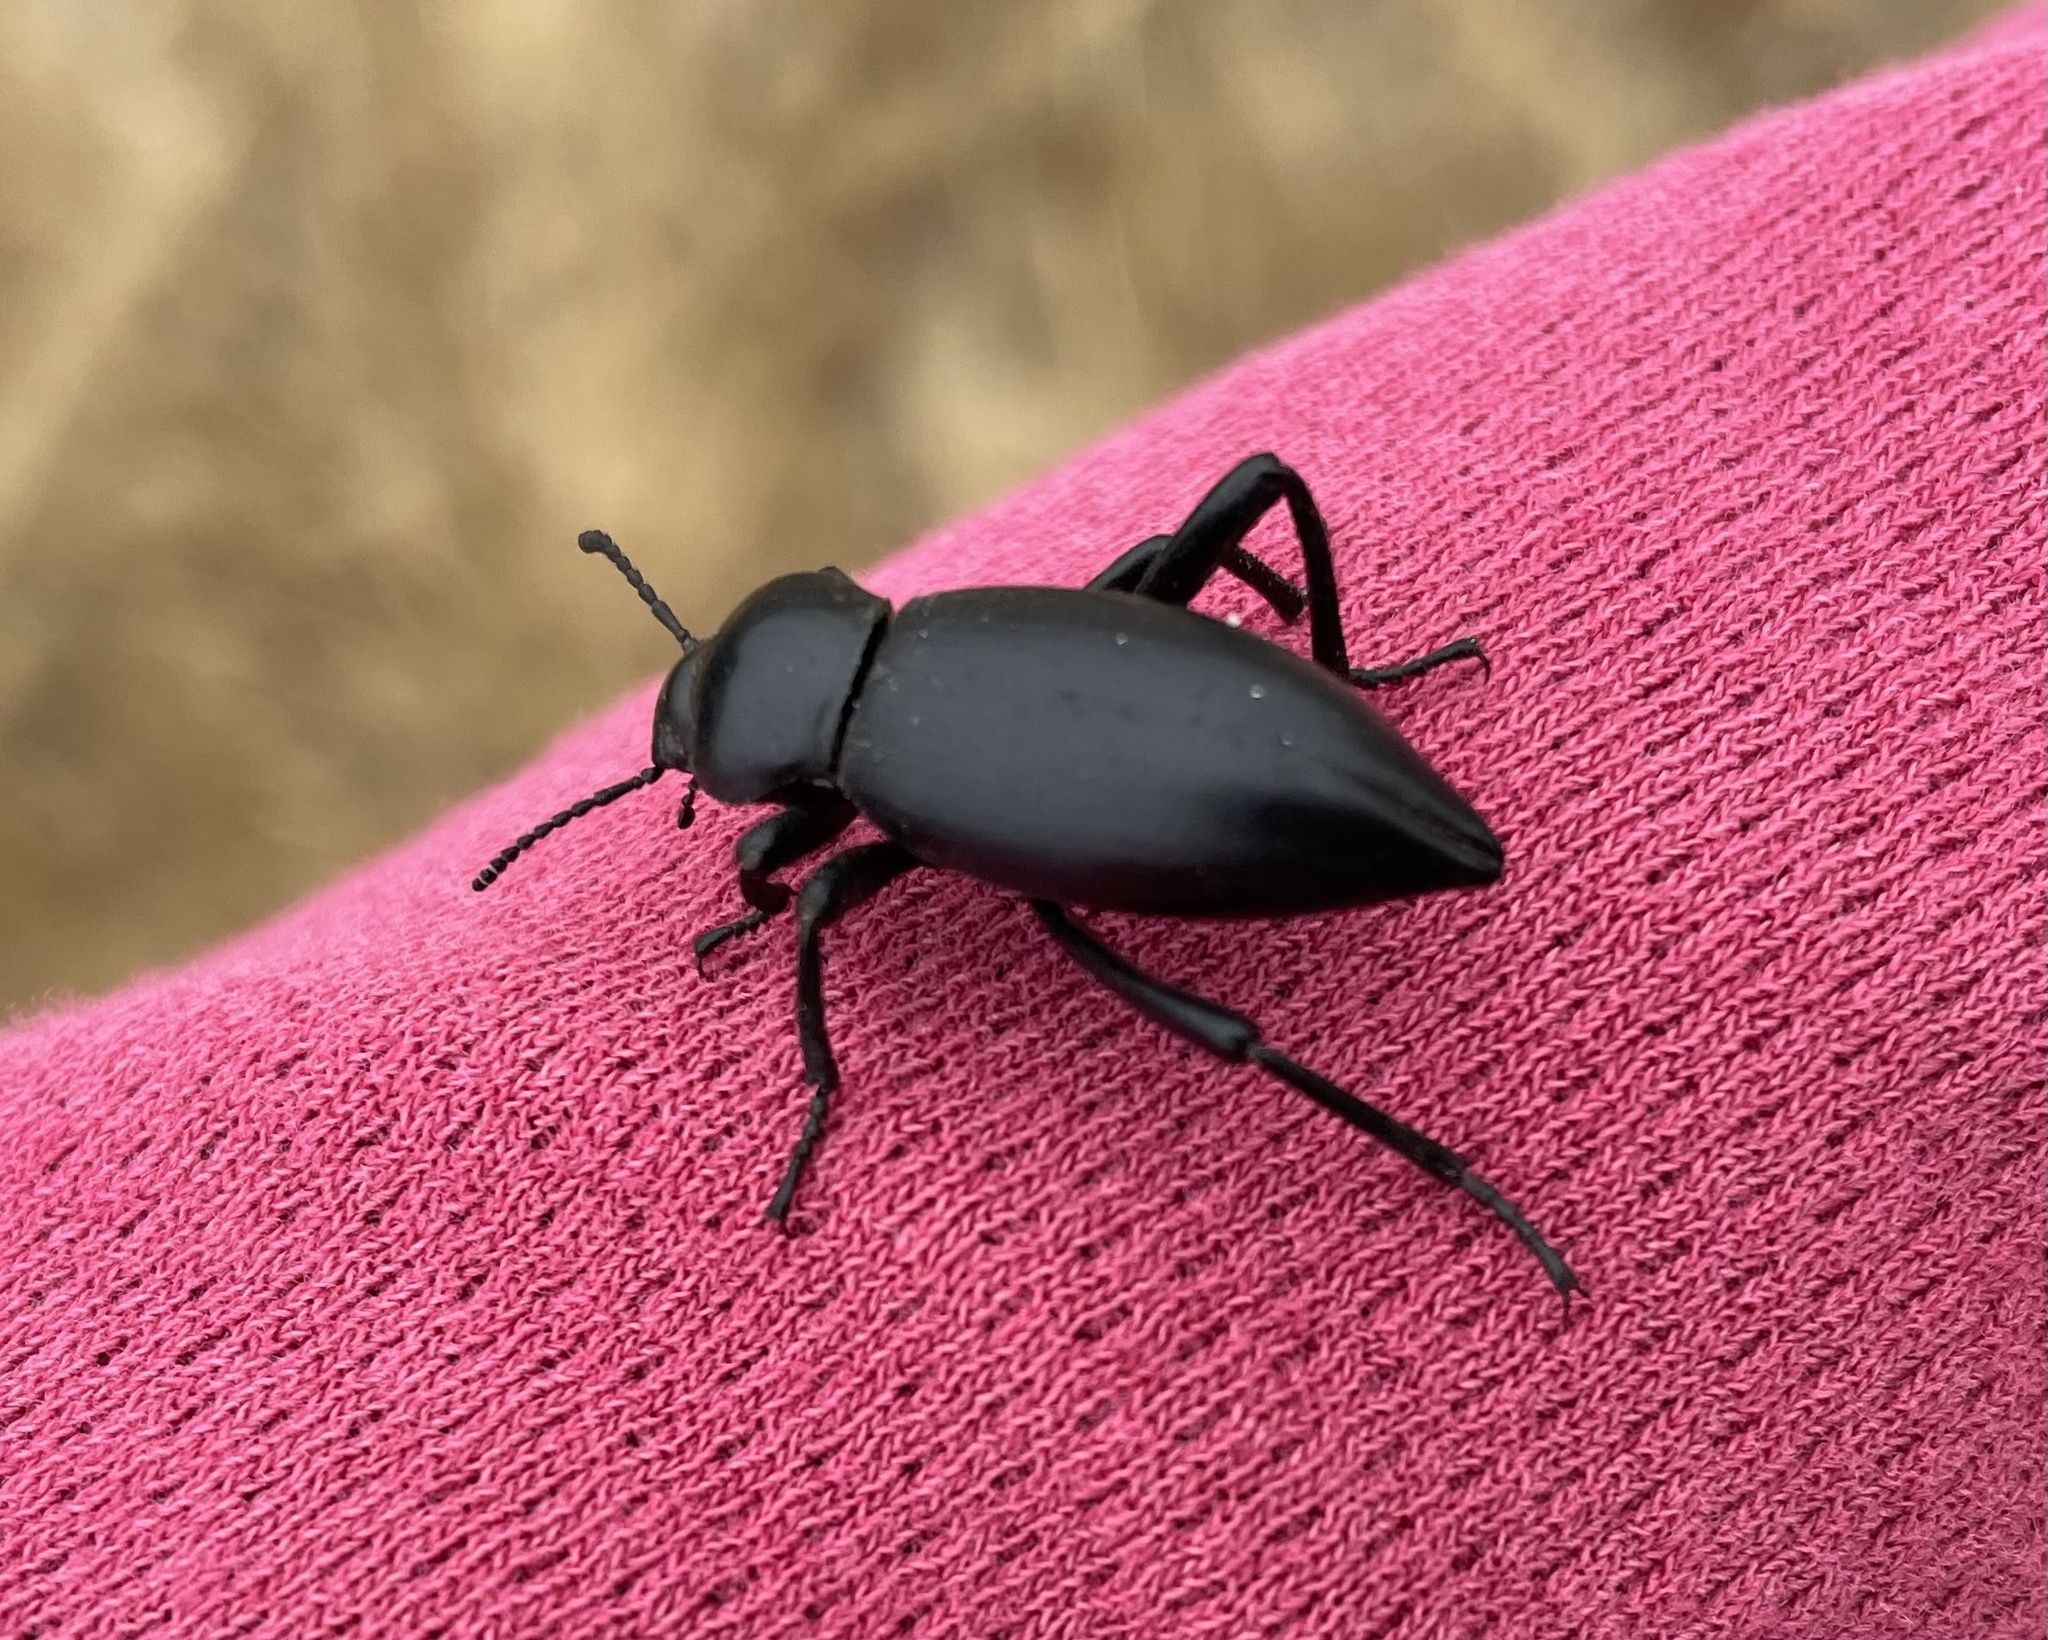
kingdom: Animalia
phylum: Arthropoda
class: Insecta
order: Coleoptera
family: Tenebrionidae
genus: Eleodes
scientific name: Eleodes dentipes
